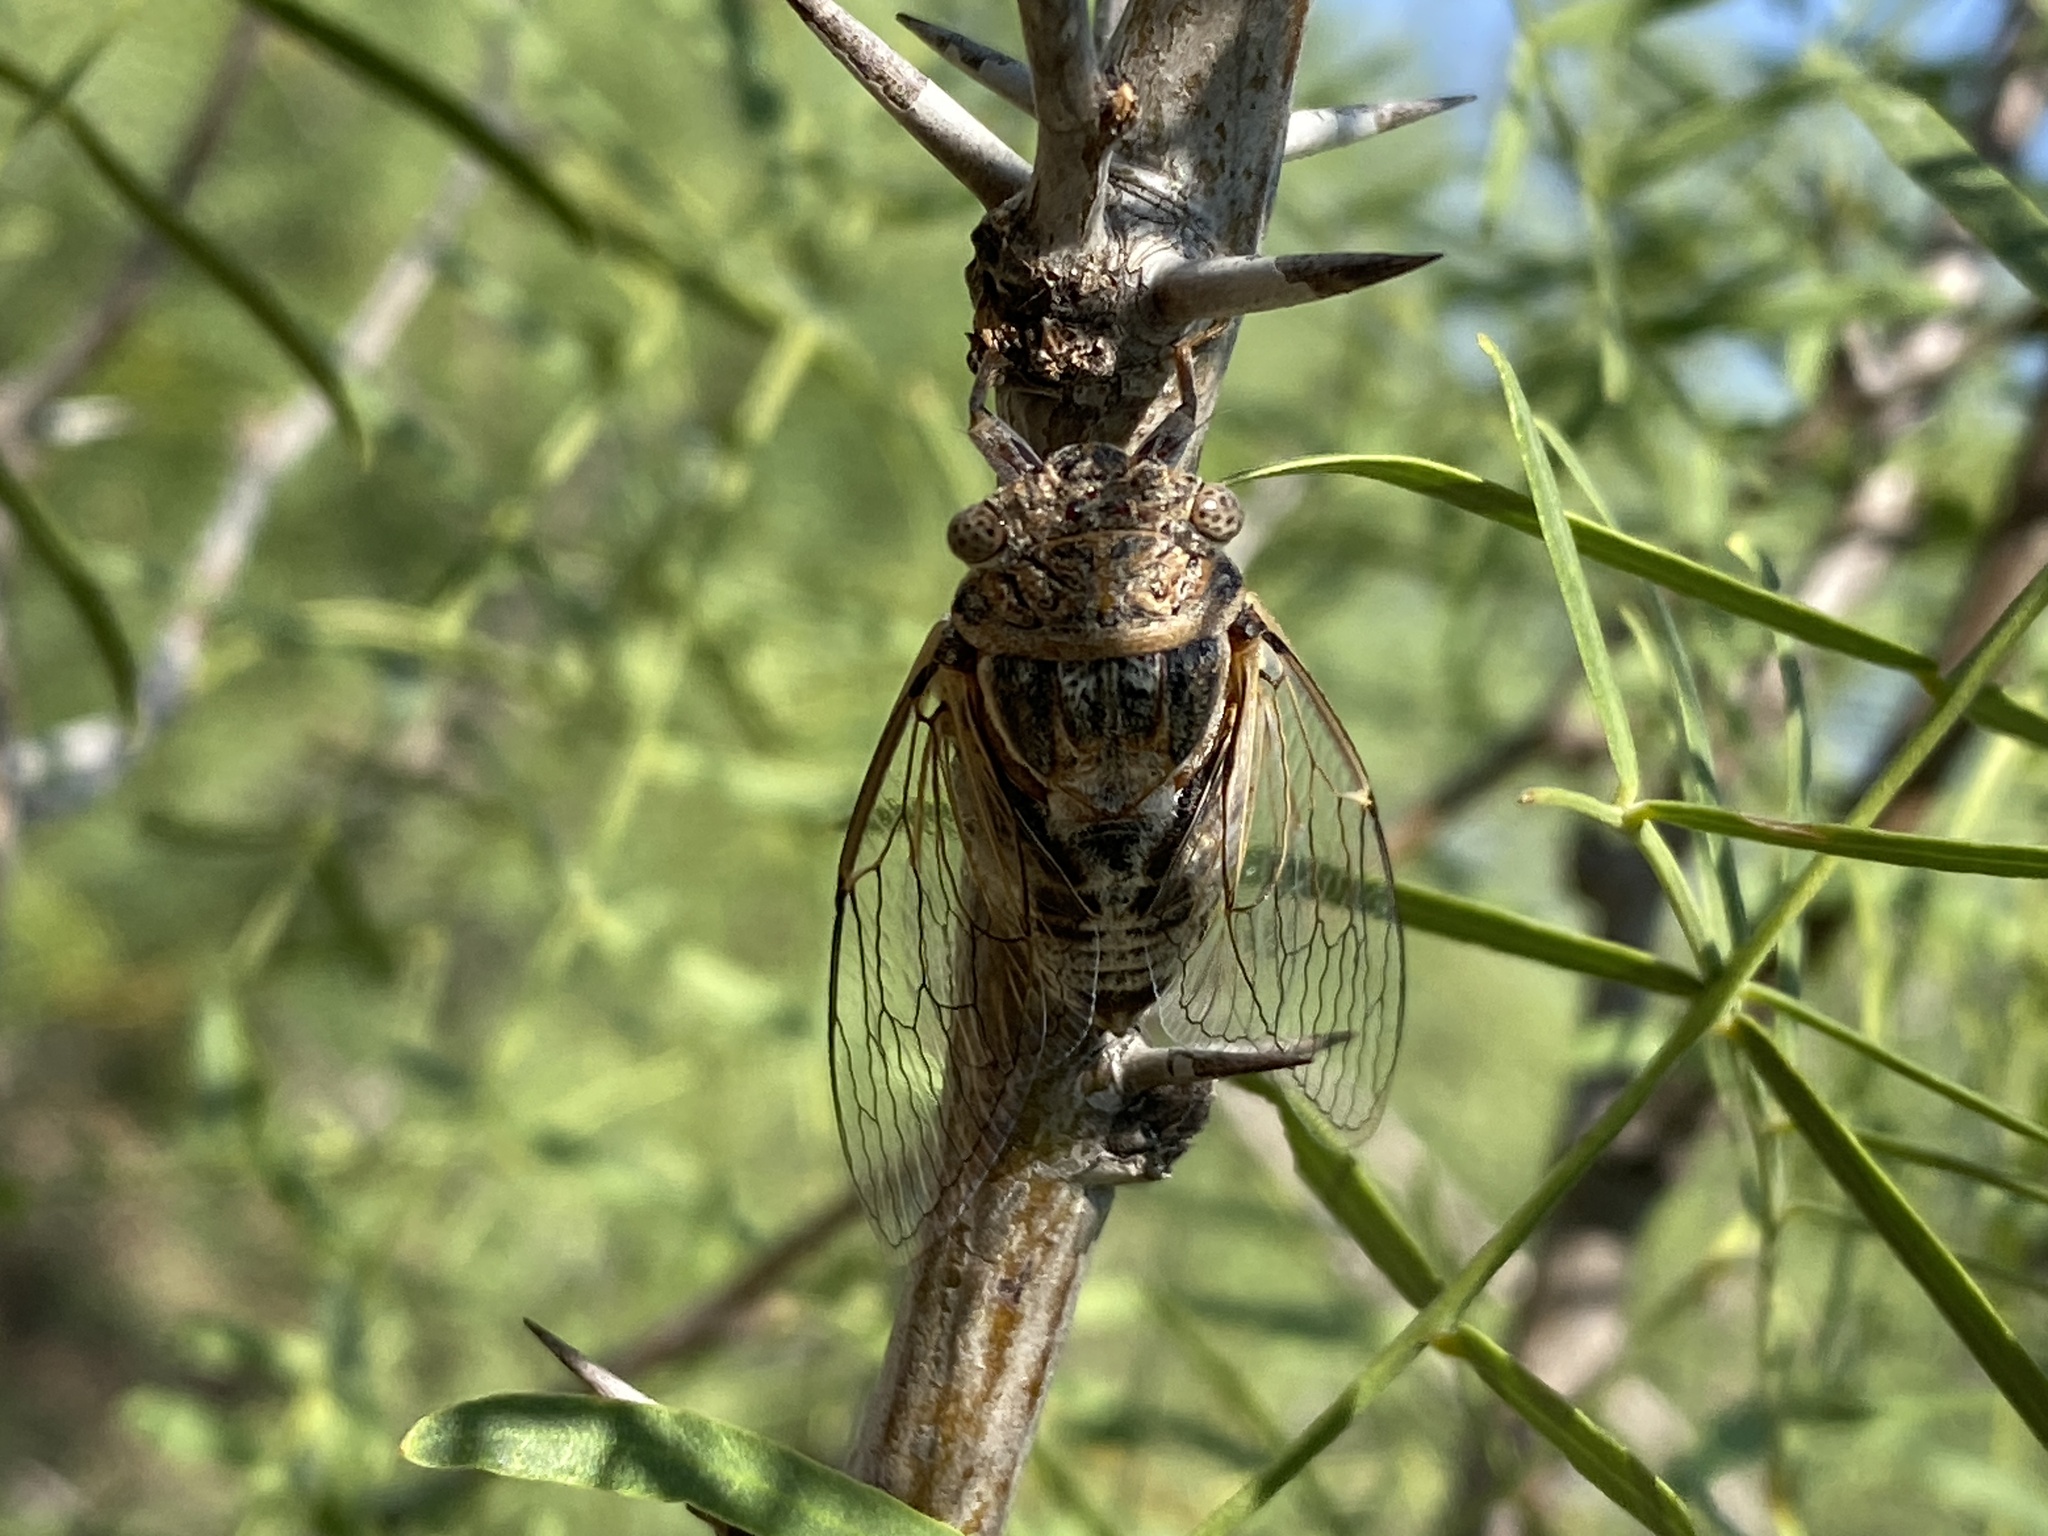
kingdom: Animalia
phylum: Arthropoda
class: Insecta
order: Hemiptera
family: Cicadidae
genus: Diceroprocta
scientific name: Diceroprocta eugraphica
